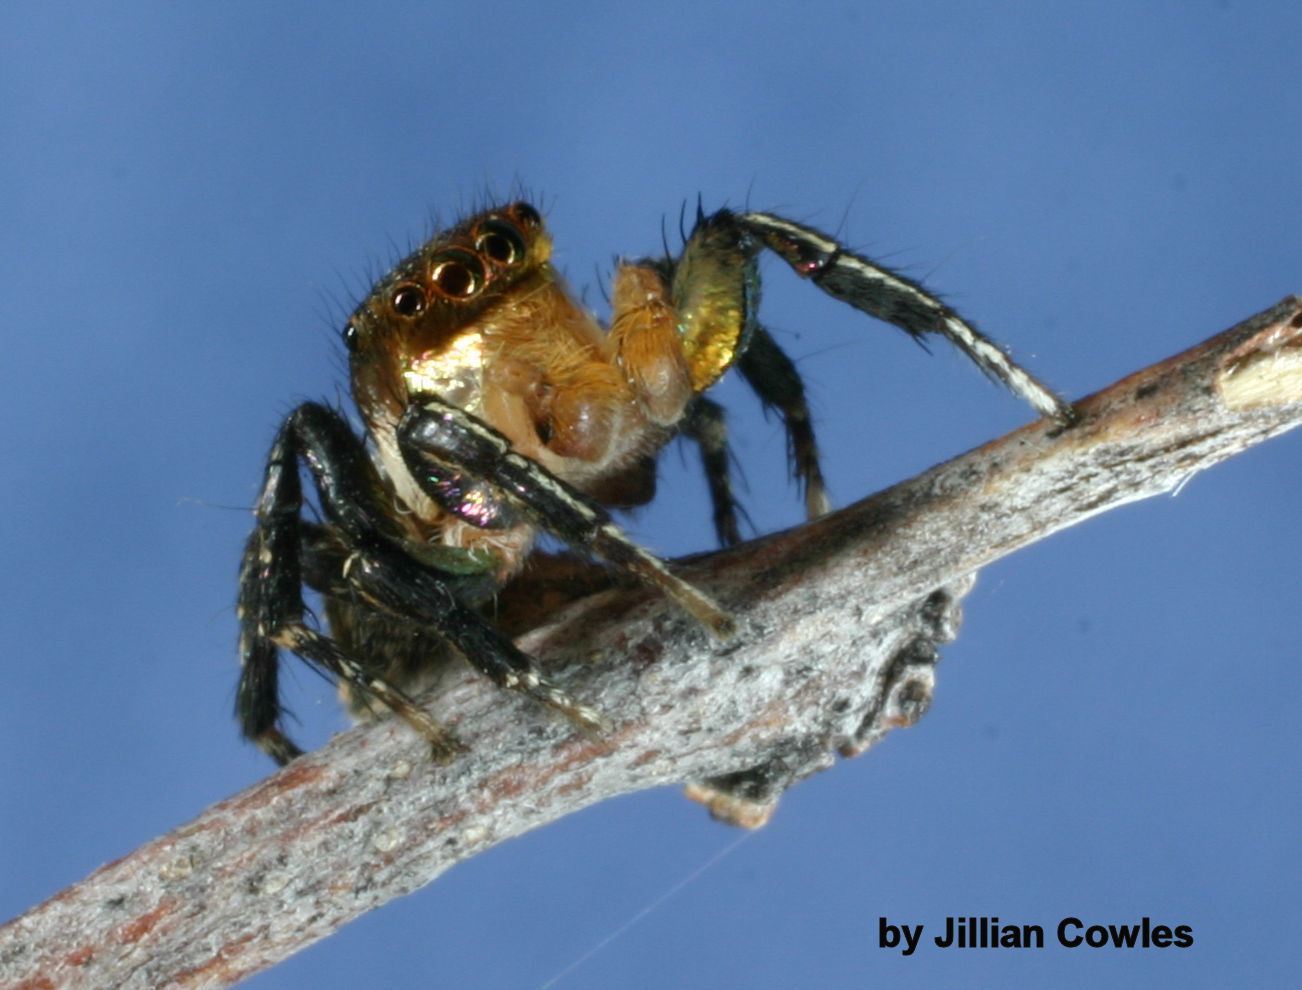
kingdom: Animalia
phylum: Arthropoda
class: Arachnida
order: Araneae
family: Salticidae
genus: Habronattus
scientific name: Habronattus hallani
